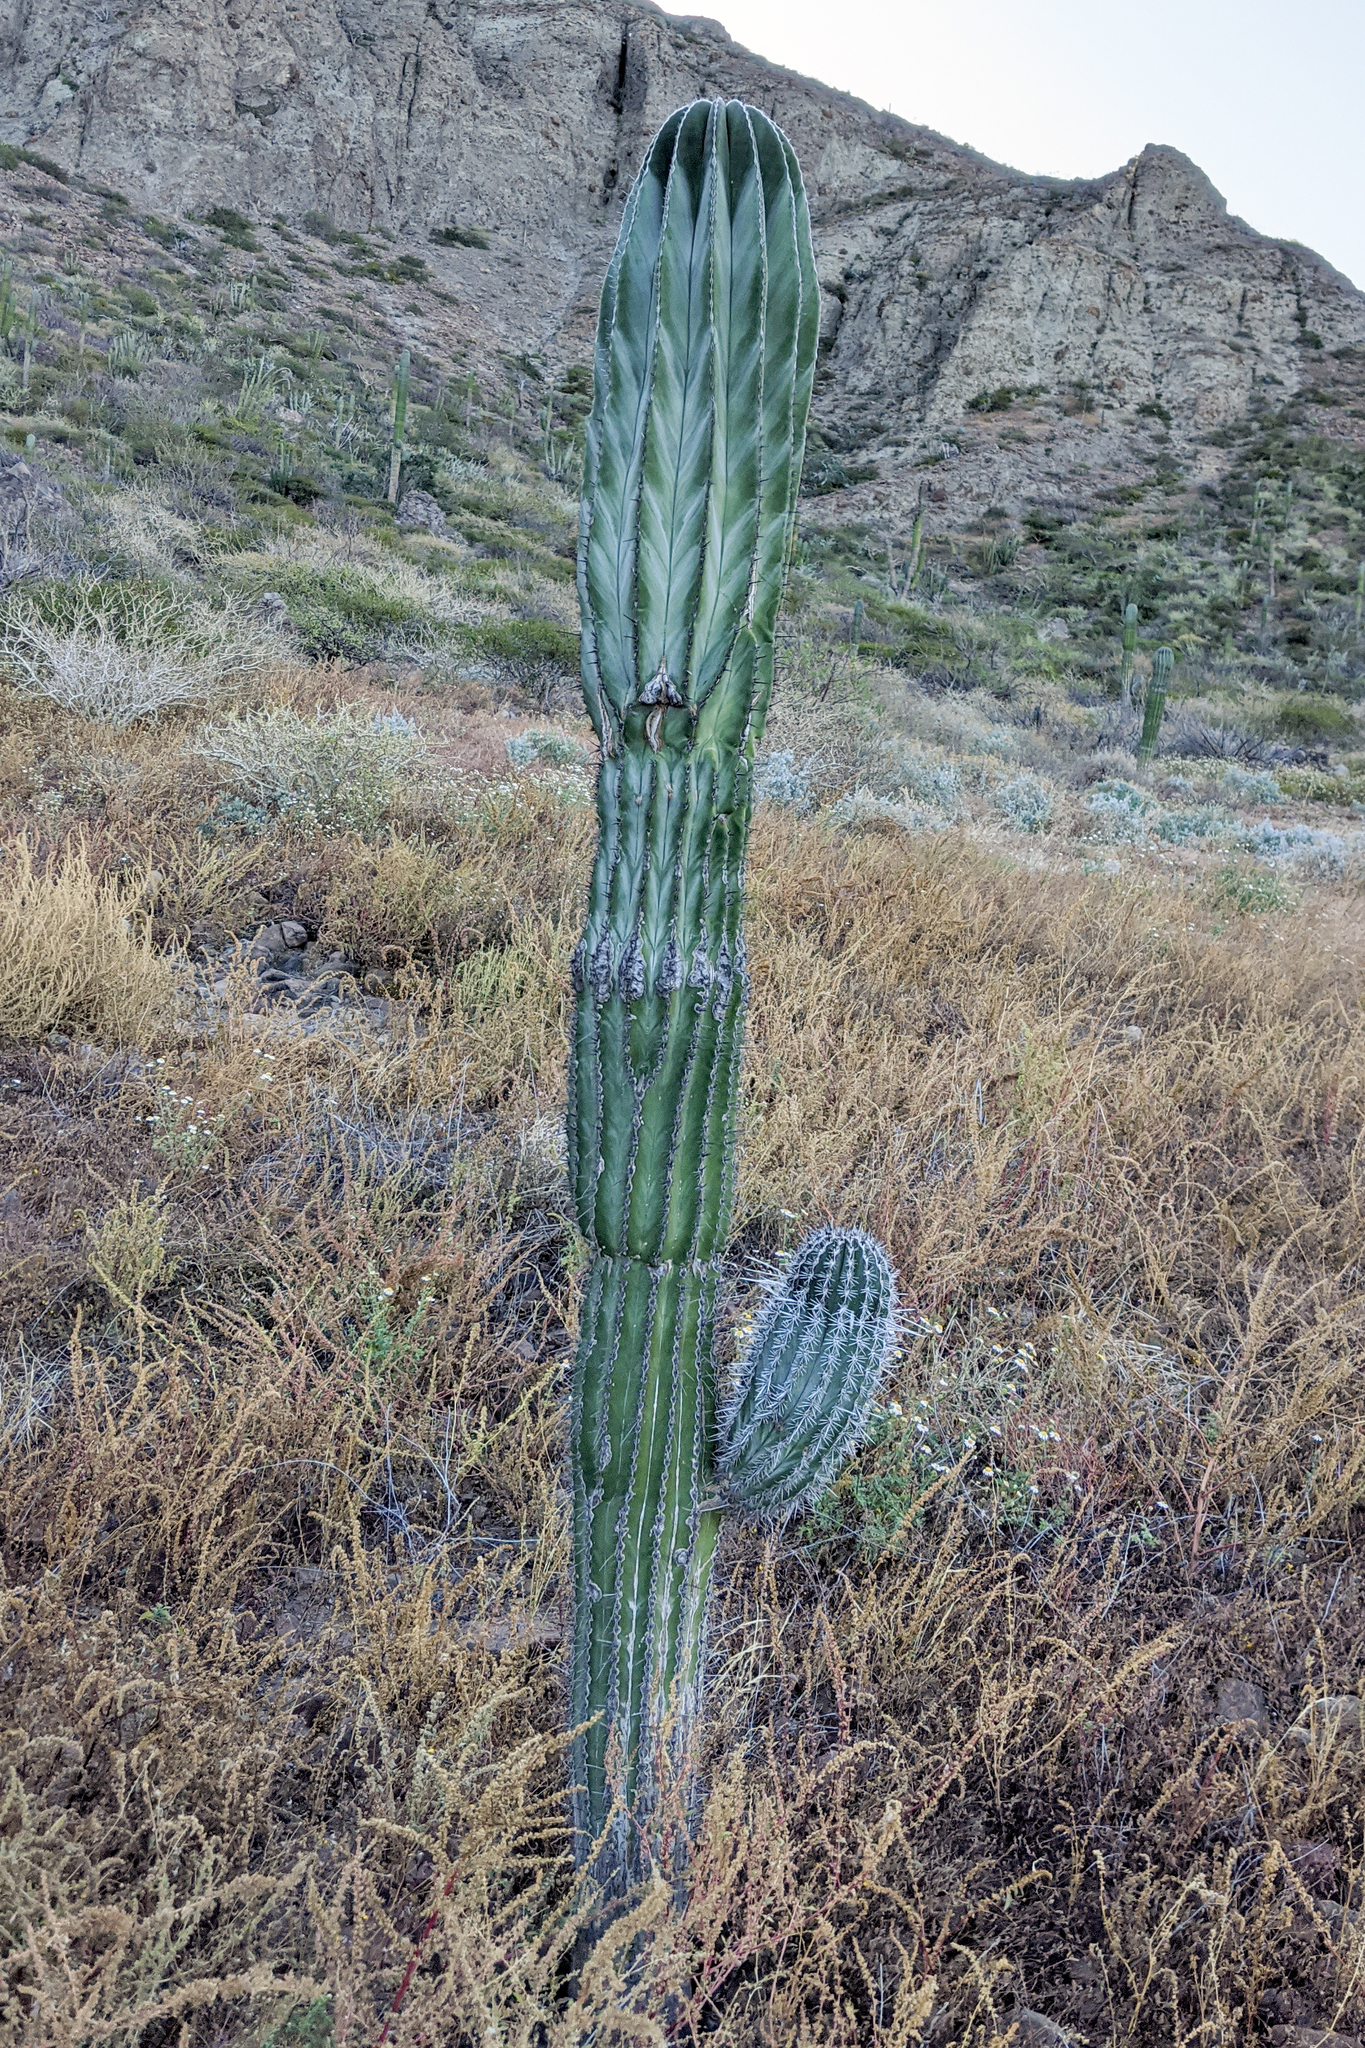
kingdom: Plantae
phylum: Tracheophyta
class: Magnoliopsida
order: Caryophyllales
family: Cactaceae
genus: Pachycereus
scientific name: Pachycereus pringlei
